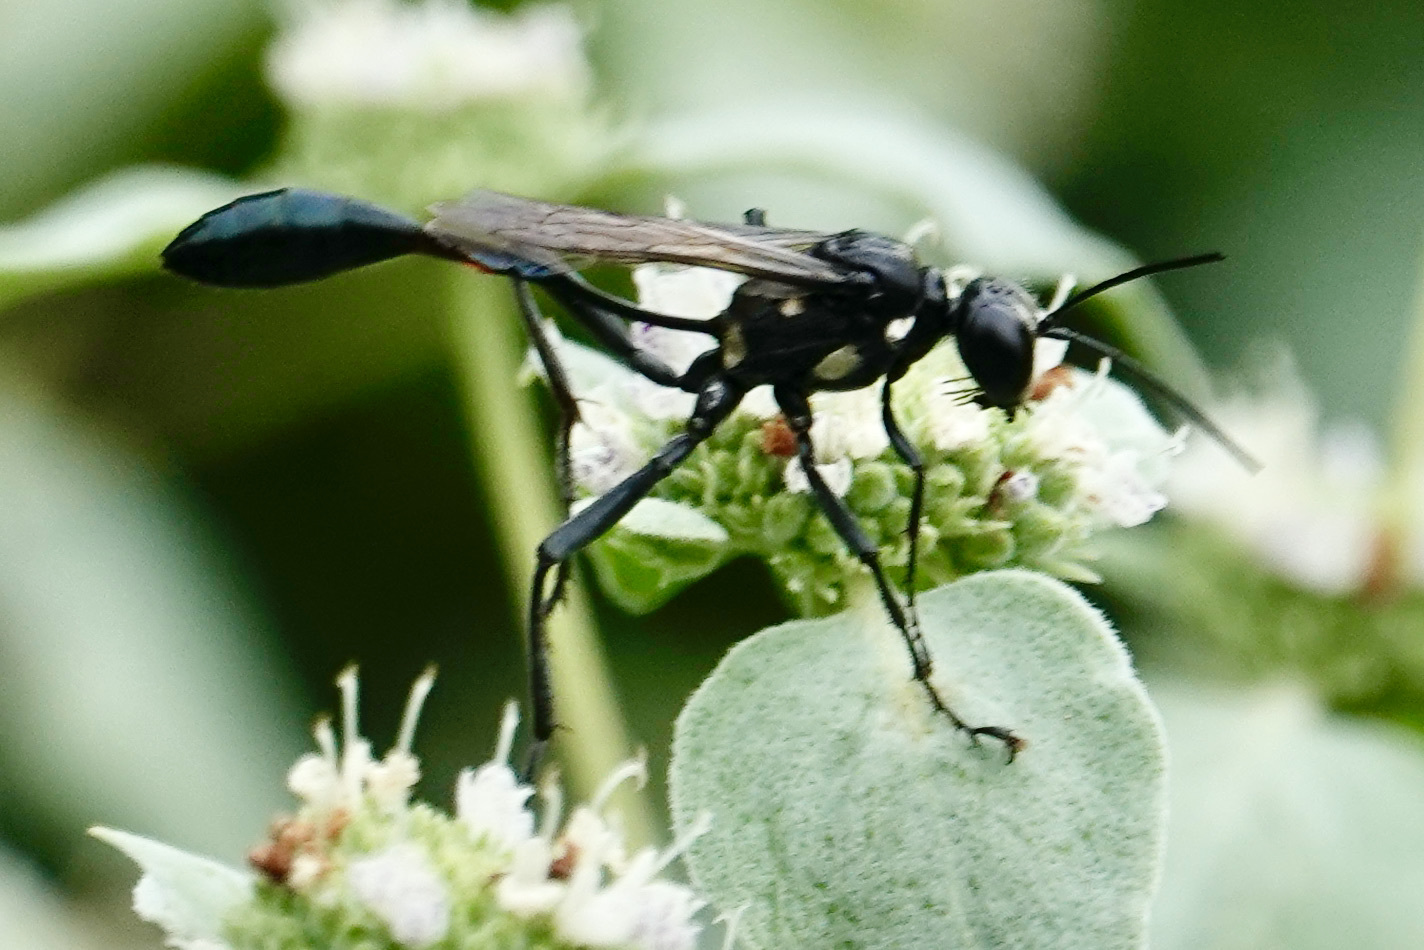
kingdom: Animalia
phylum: Arthropoda
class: Insecta
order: Hymenoptera
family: Sphecidae
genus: Eremnophila
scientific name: Eremnophila aureonotata
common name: Gold-marked thread-waisted wasp
